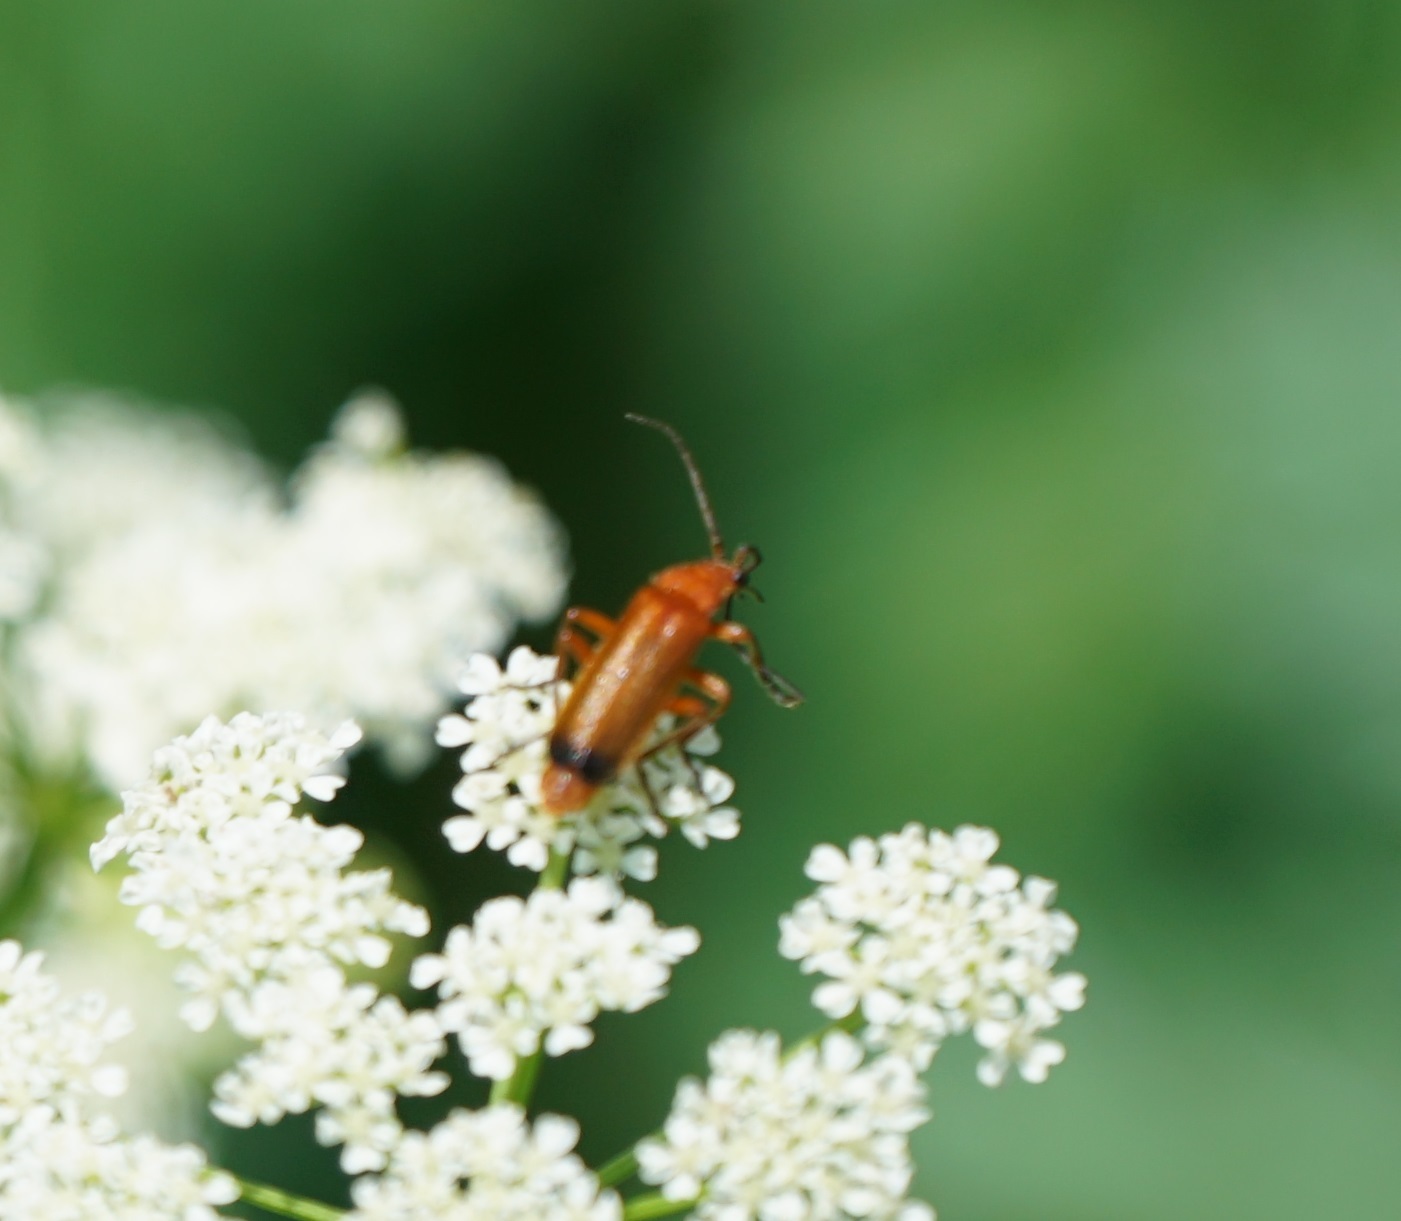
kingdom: Animalia
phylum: Arthropoda
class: Insecta
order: Coleoptera
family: Cantharidae
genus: Rhagonycha
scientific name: Rhagonycha fulva
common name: Common red soldier beetle
